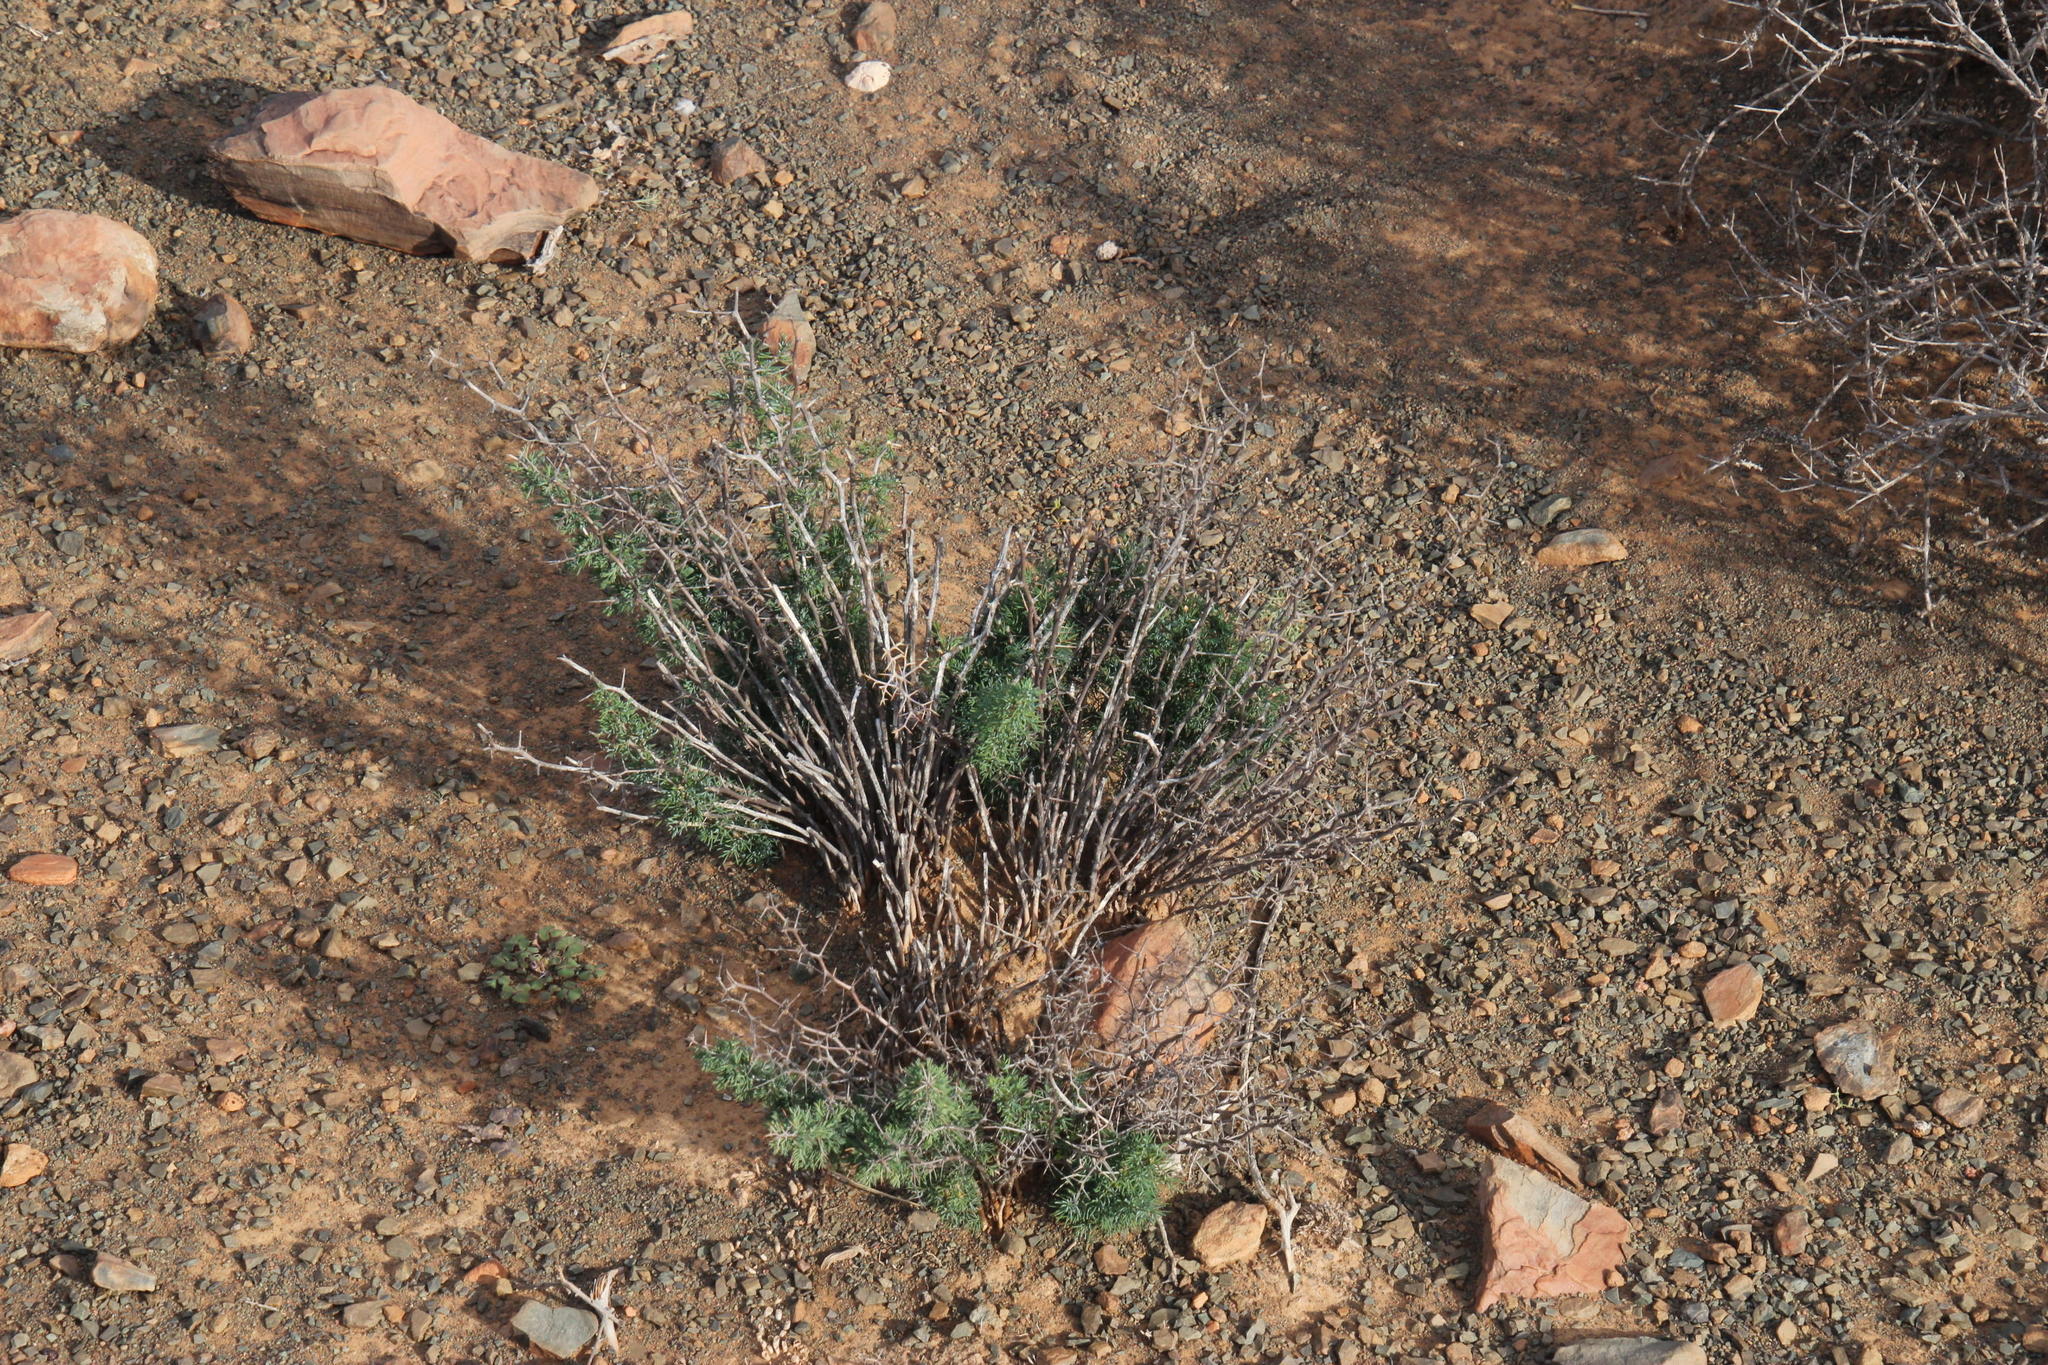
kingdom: Plantae
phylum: Tracheophyta
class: Liliopsida
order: Asparagales
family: Asparagaceae
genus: Asparagus
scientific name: Asparagus suaveolens
